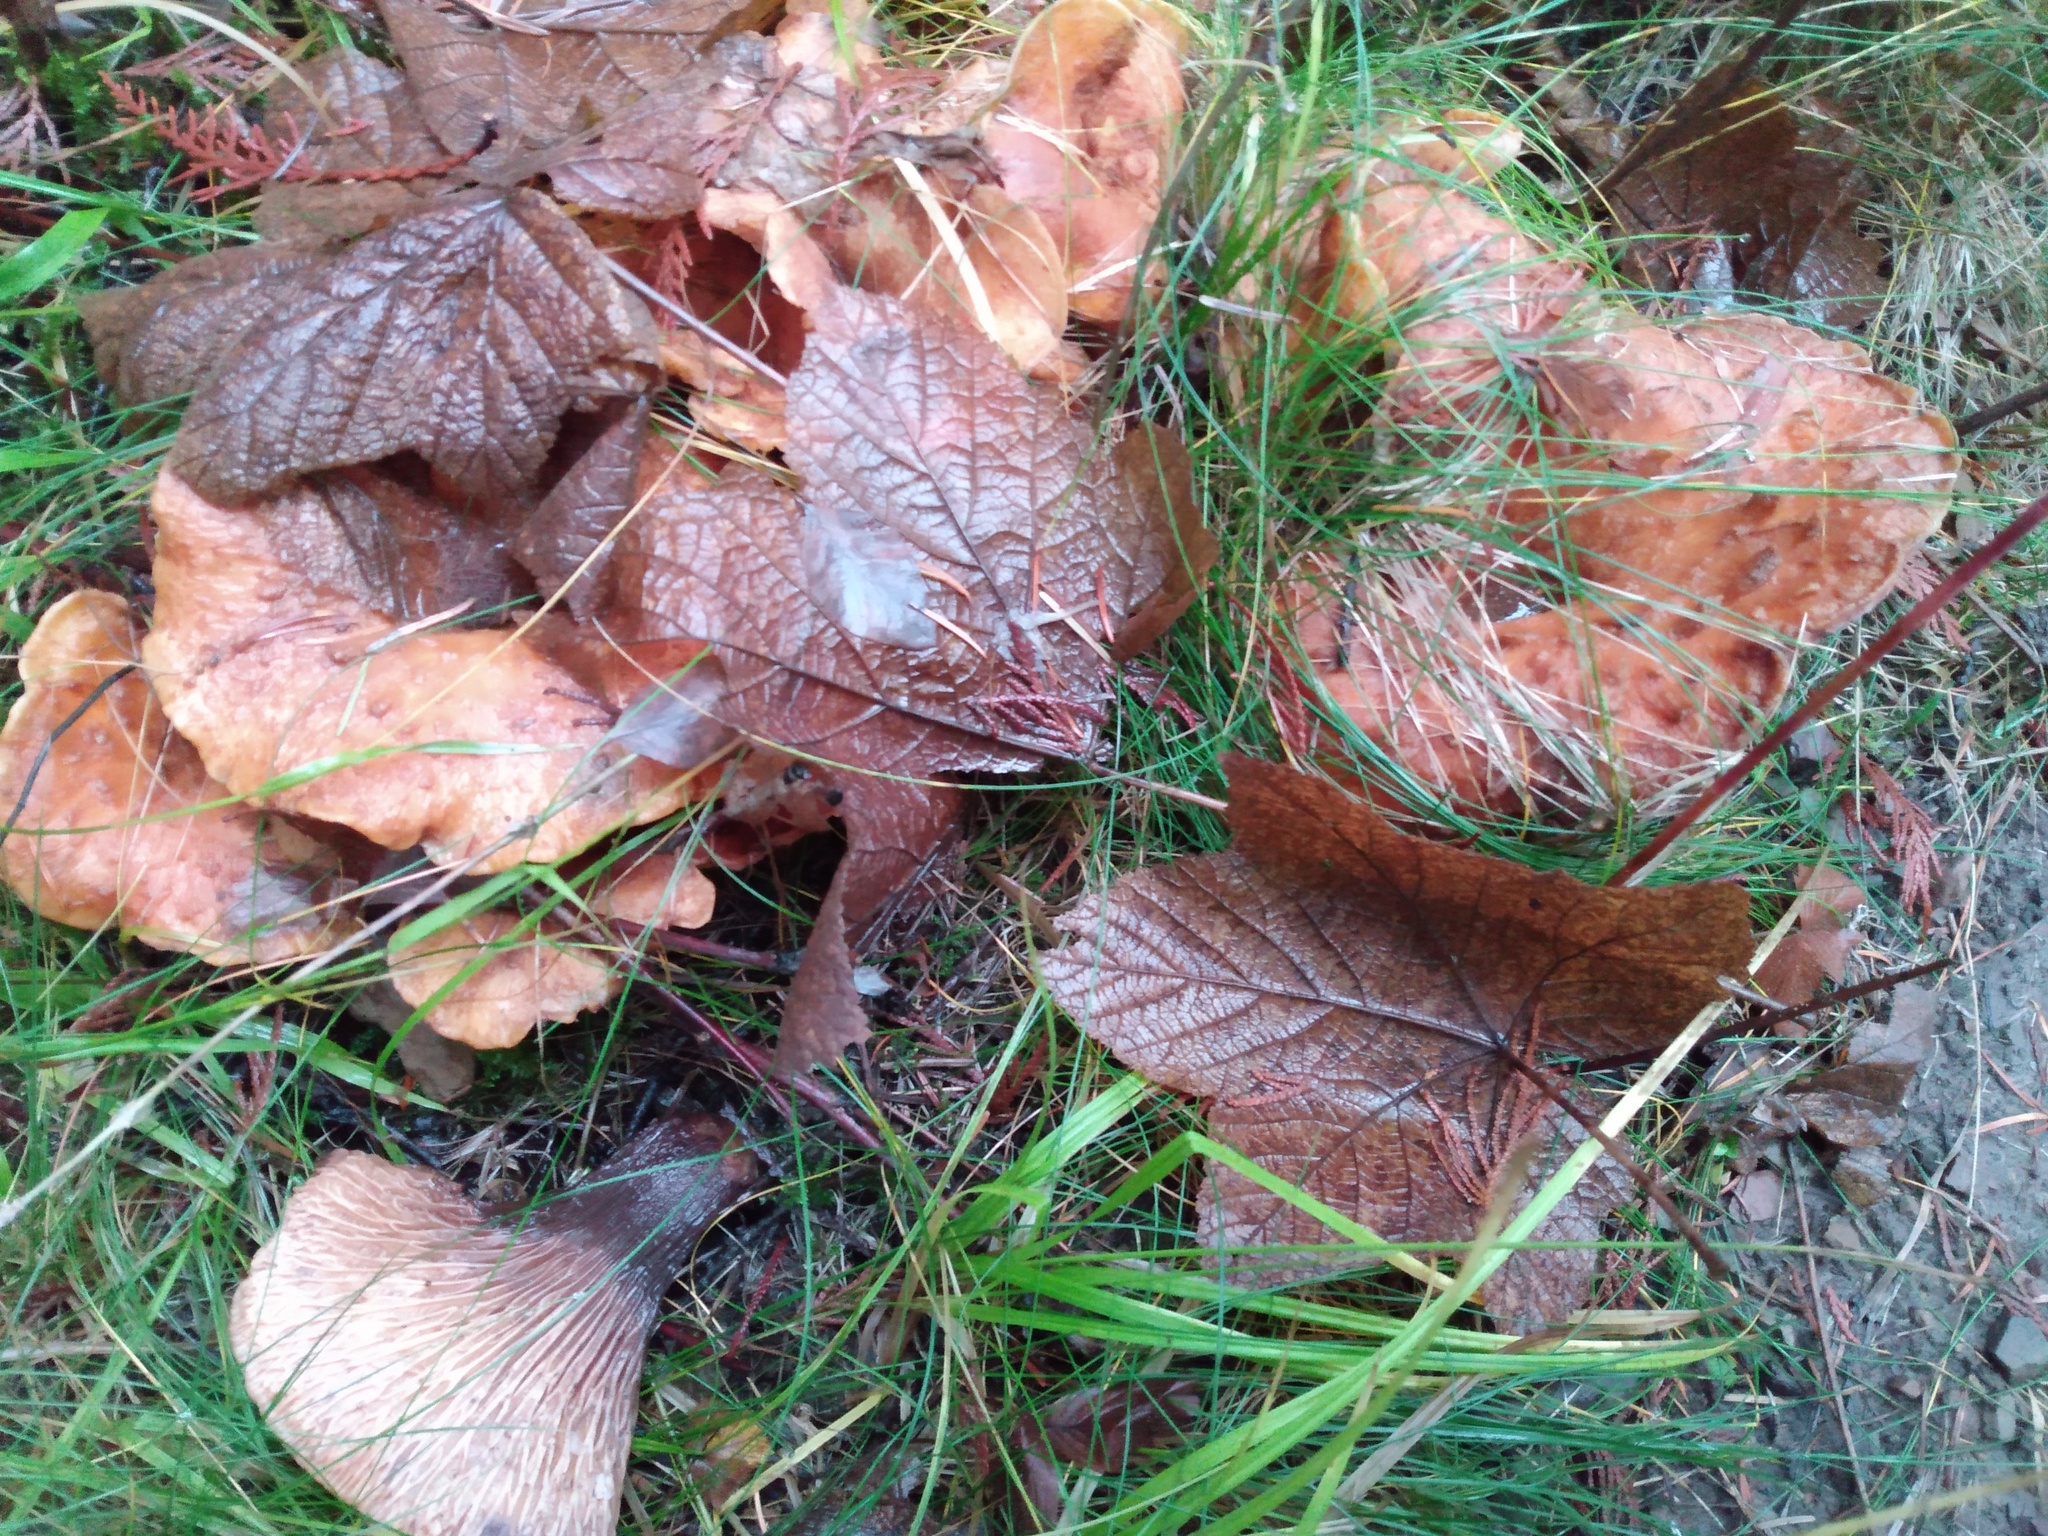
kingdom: Fungi
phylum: Basidiomycota
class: Agaricomycetes
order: Gomphales
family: Gomphaceae
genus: Turbinellus
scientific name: Turbinellus floccosus
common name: Scaly chanterelle
